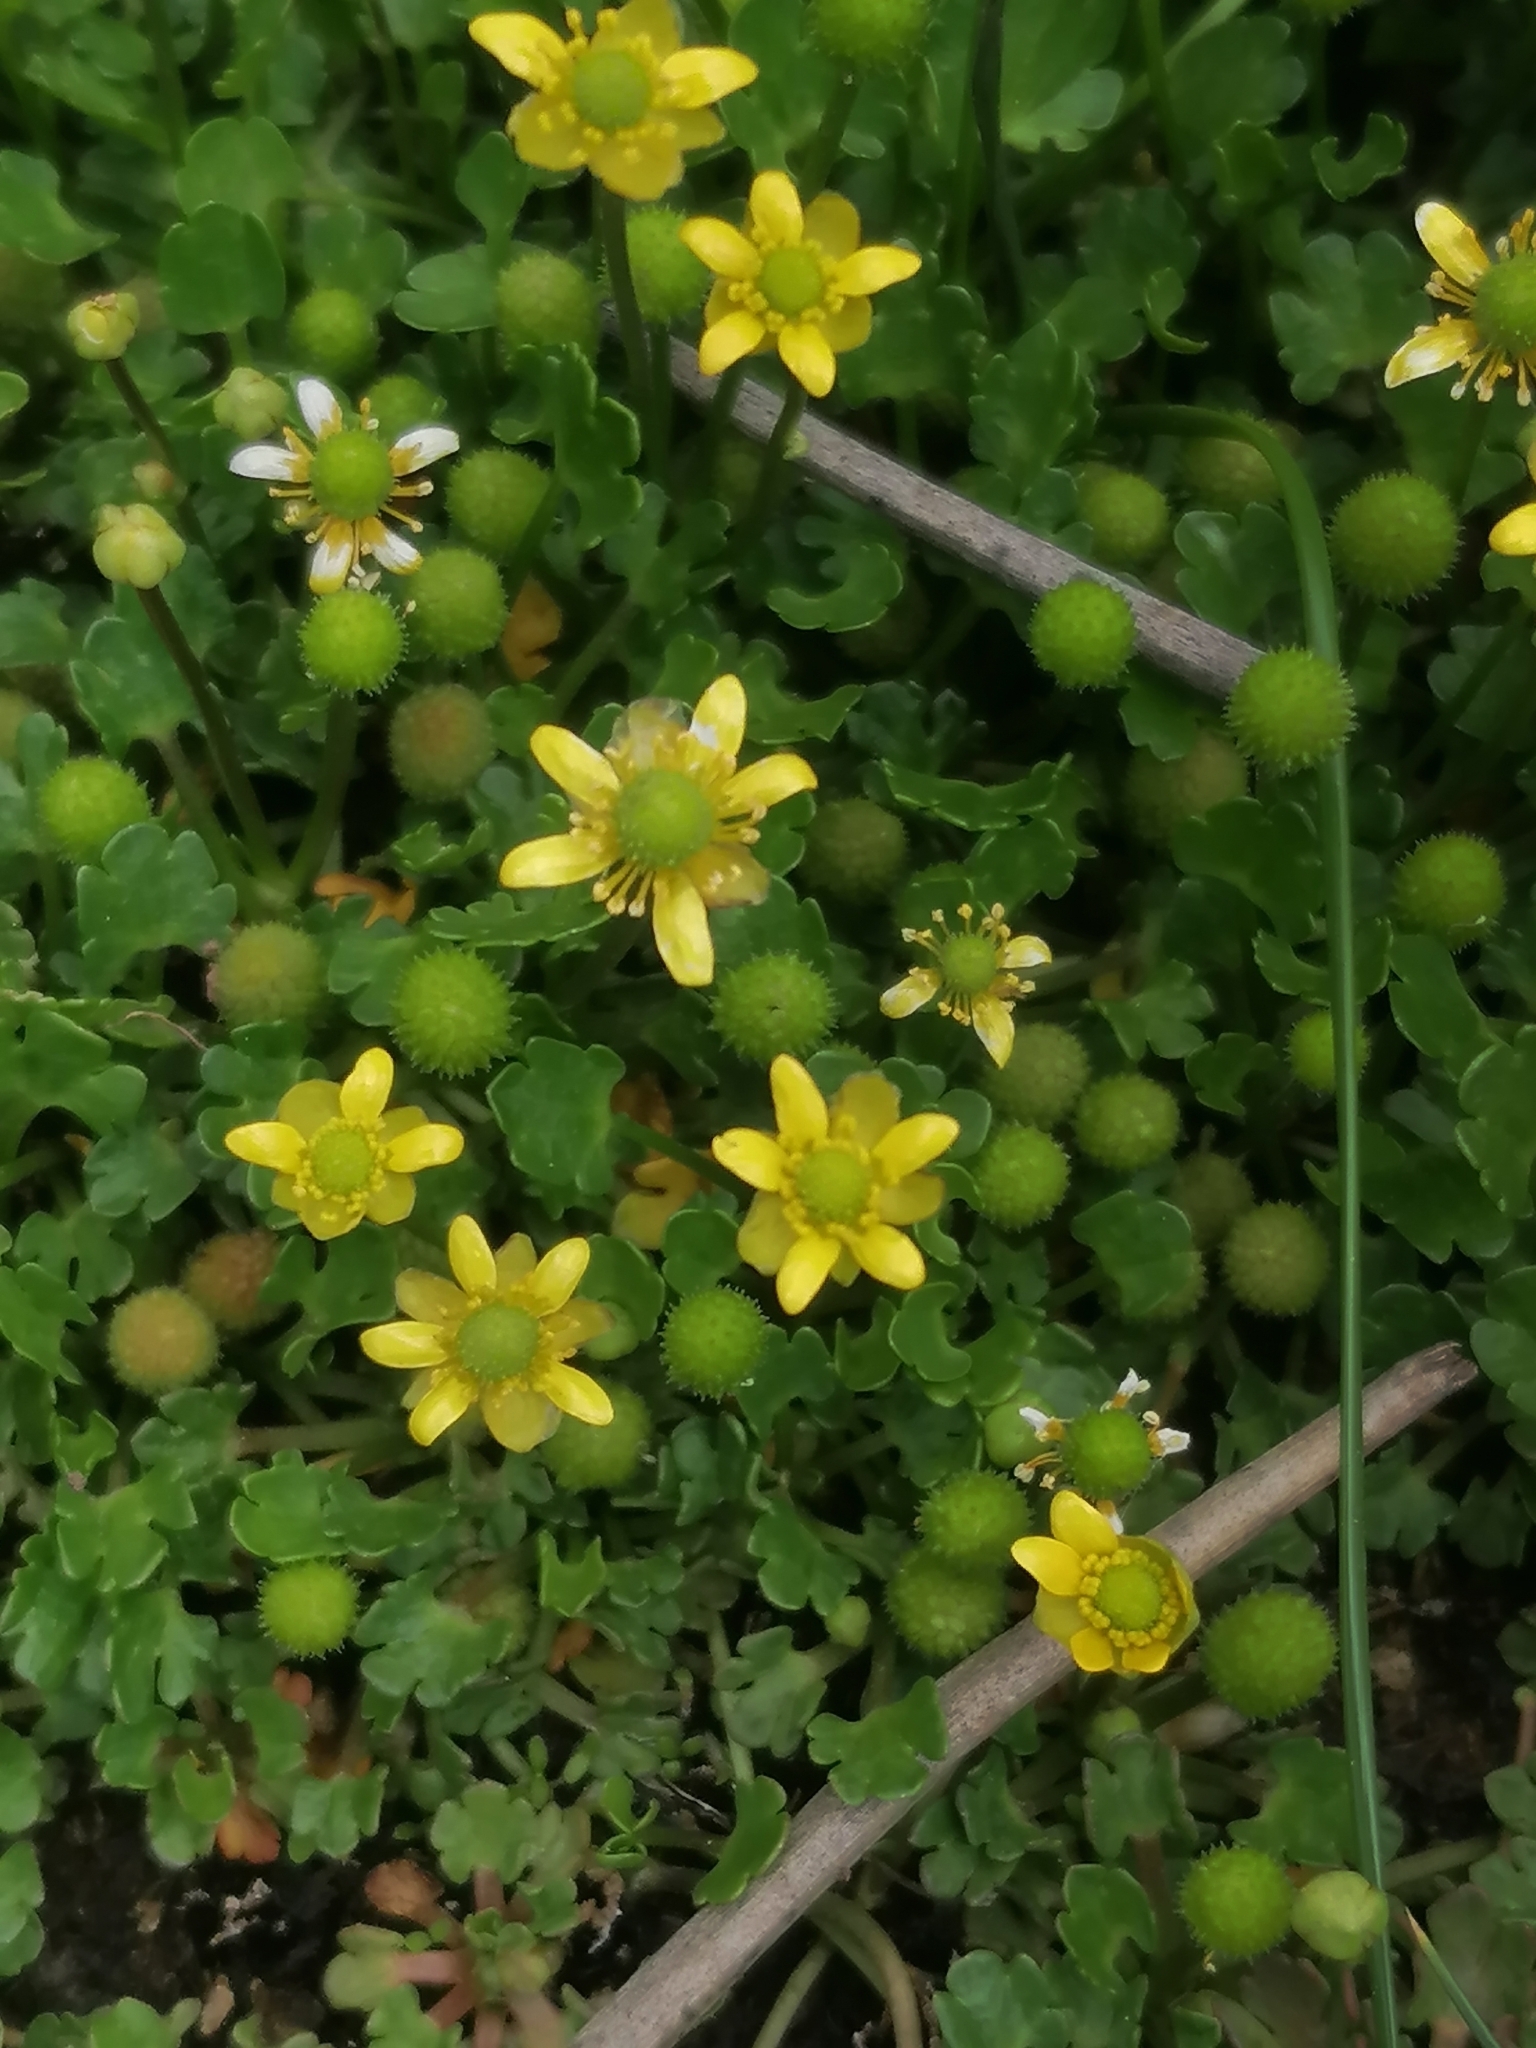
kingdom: Plantae
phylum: Tracheophyta
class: Magnoliopsida
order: Ranunculales
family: Ranunculaceae
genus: Halerpestes
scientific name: Halerpestes cymbalaria
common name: Seaside crowfoot
